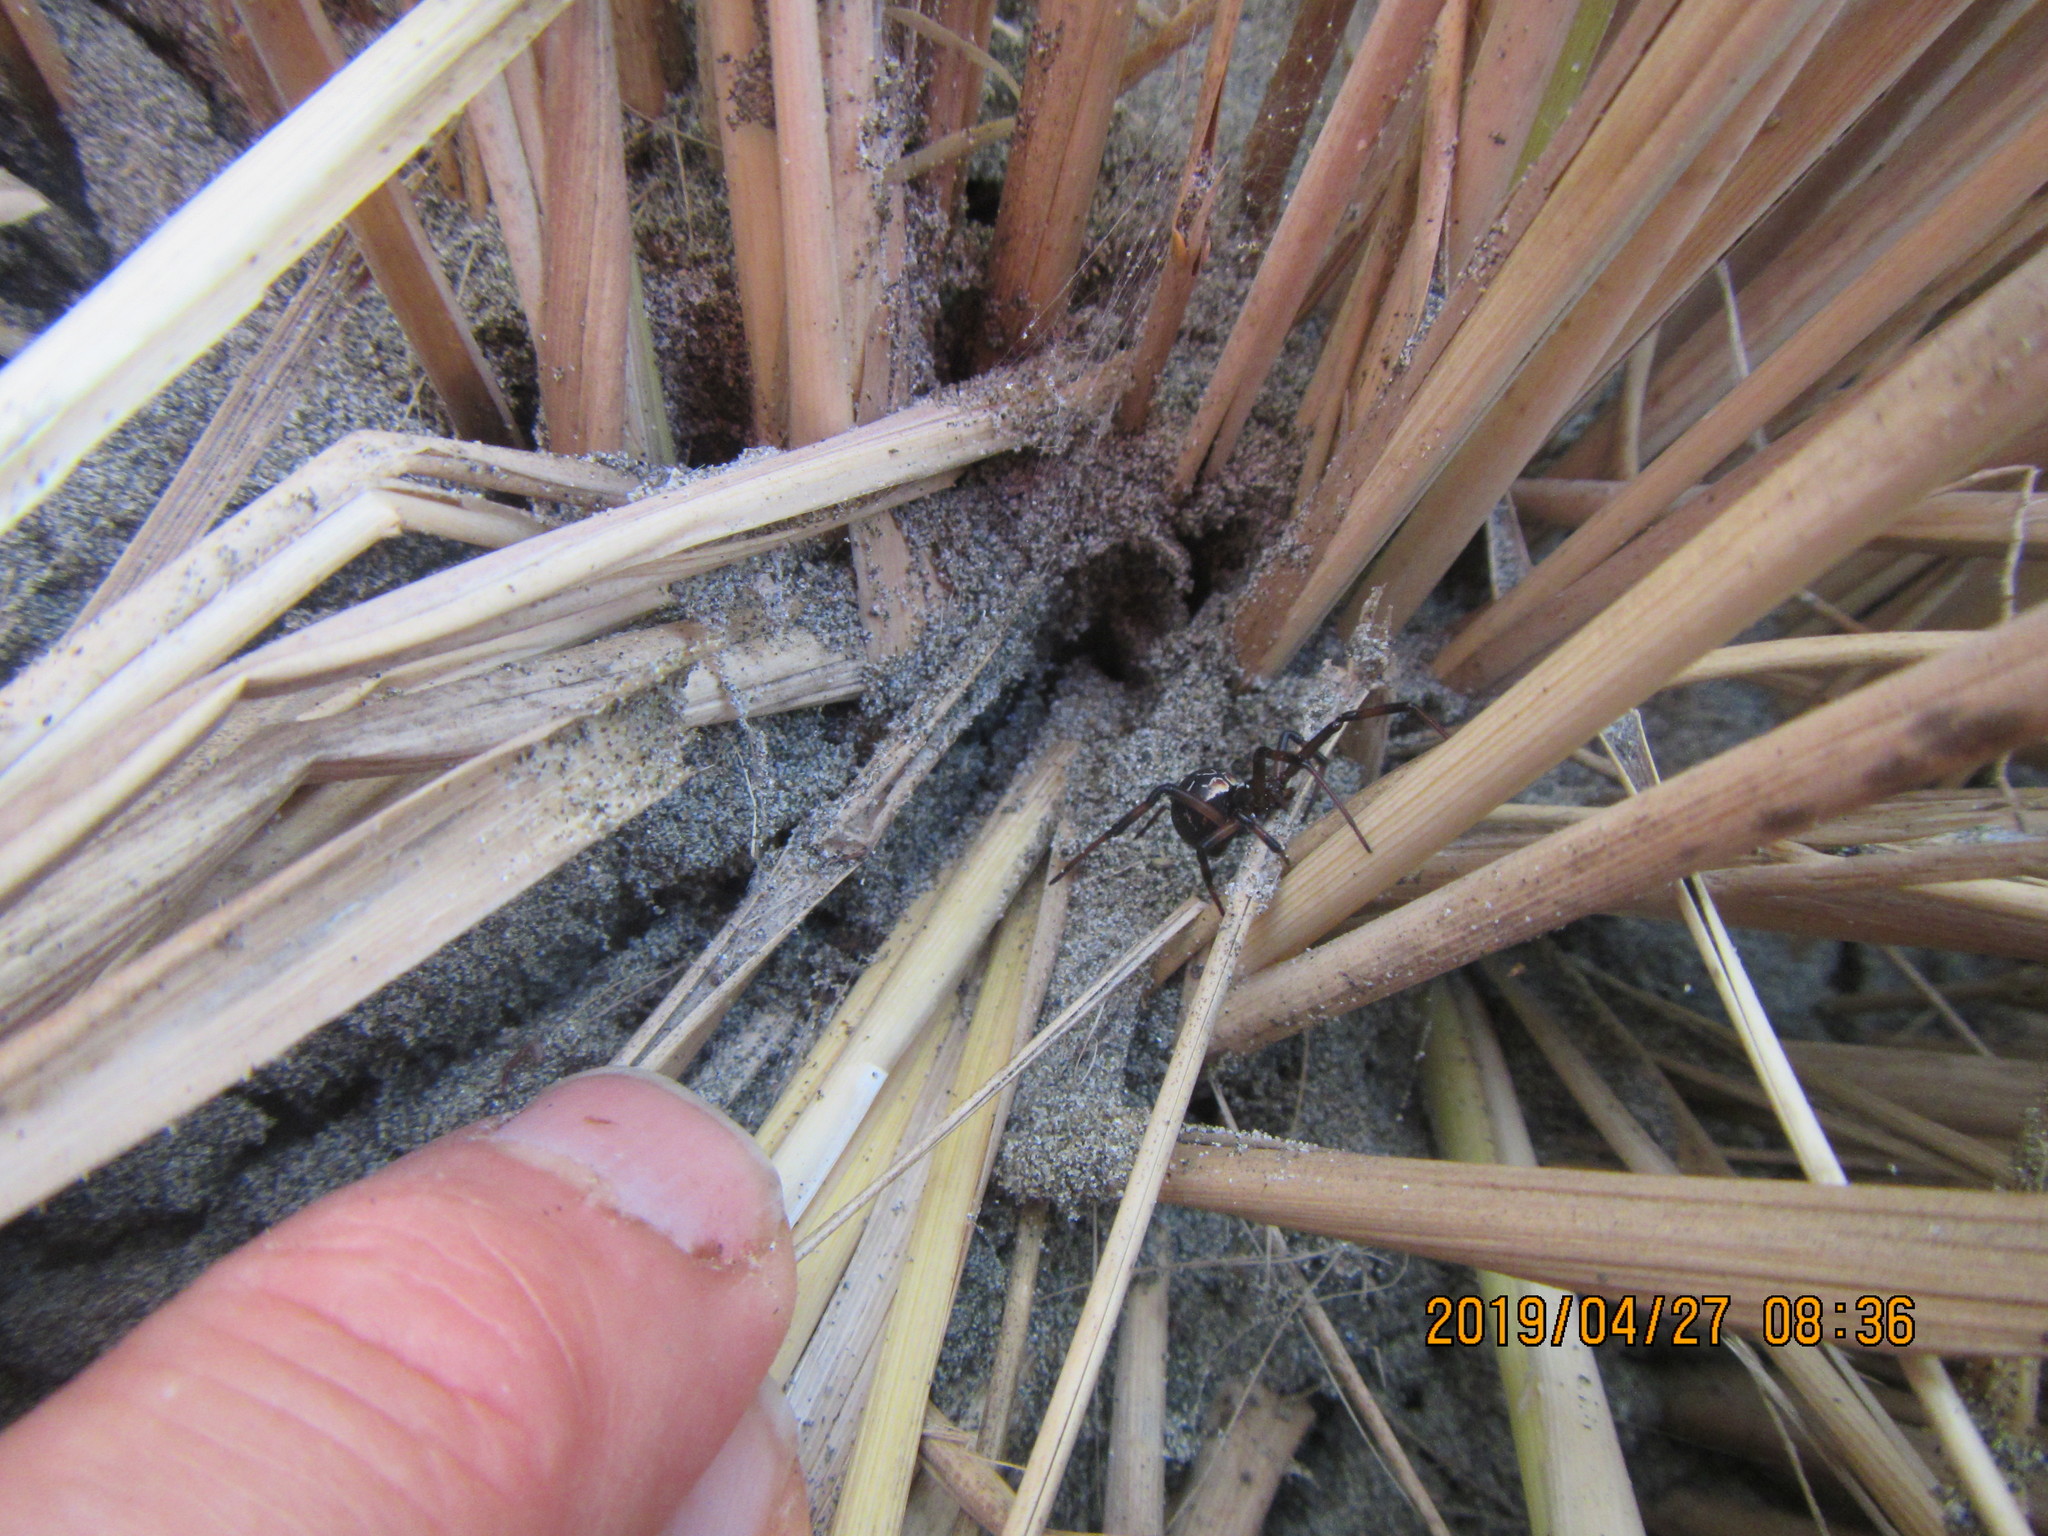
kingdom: Animalia
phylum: Arthropoda
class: Arachnida
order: Araneae
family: Theridiidae
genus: Latrodectus
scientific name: Latrodectus katipo
